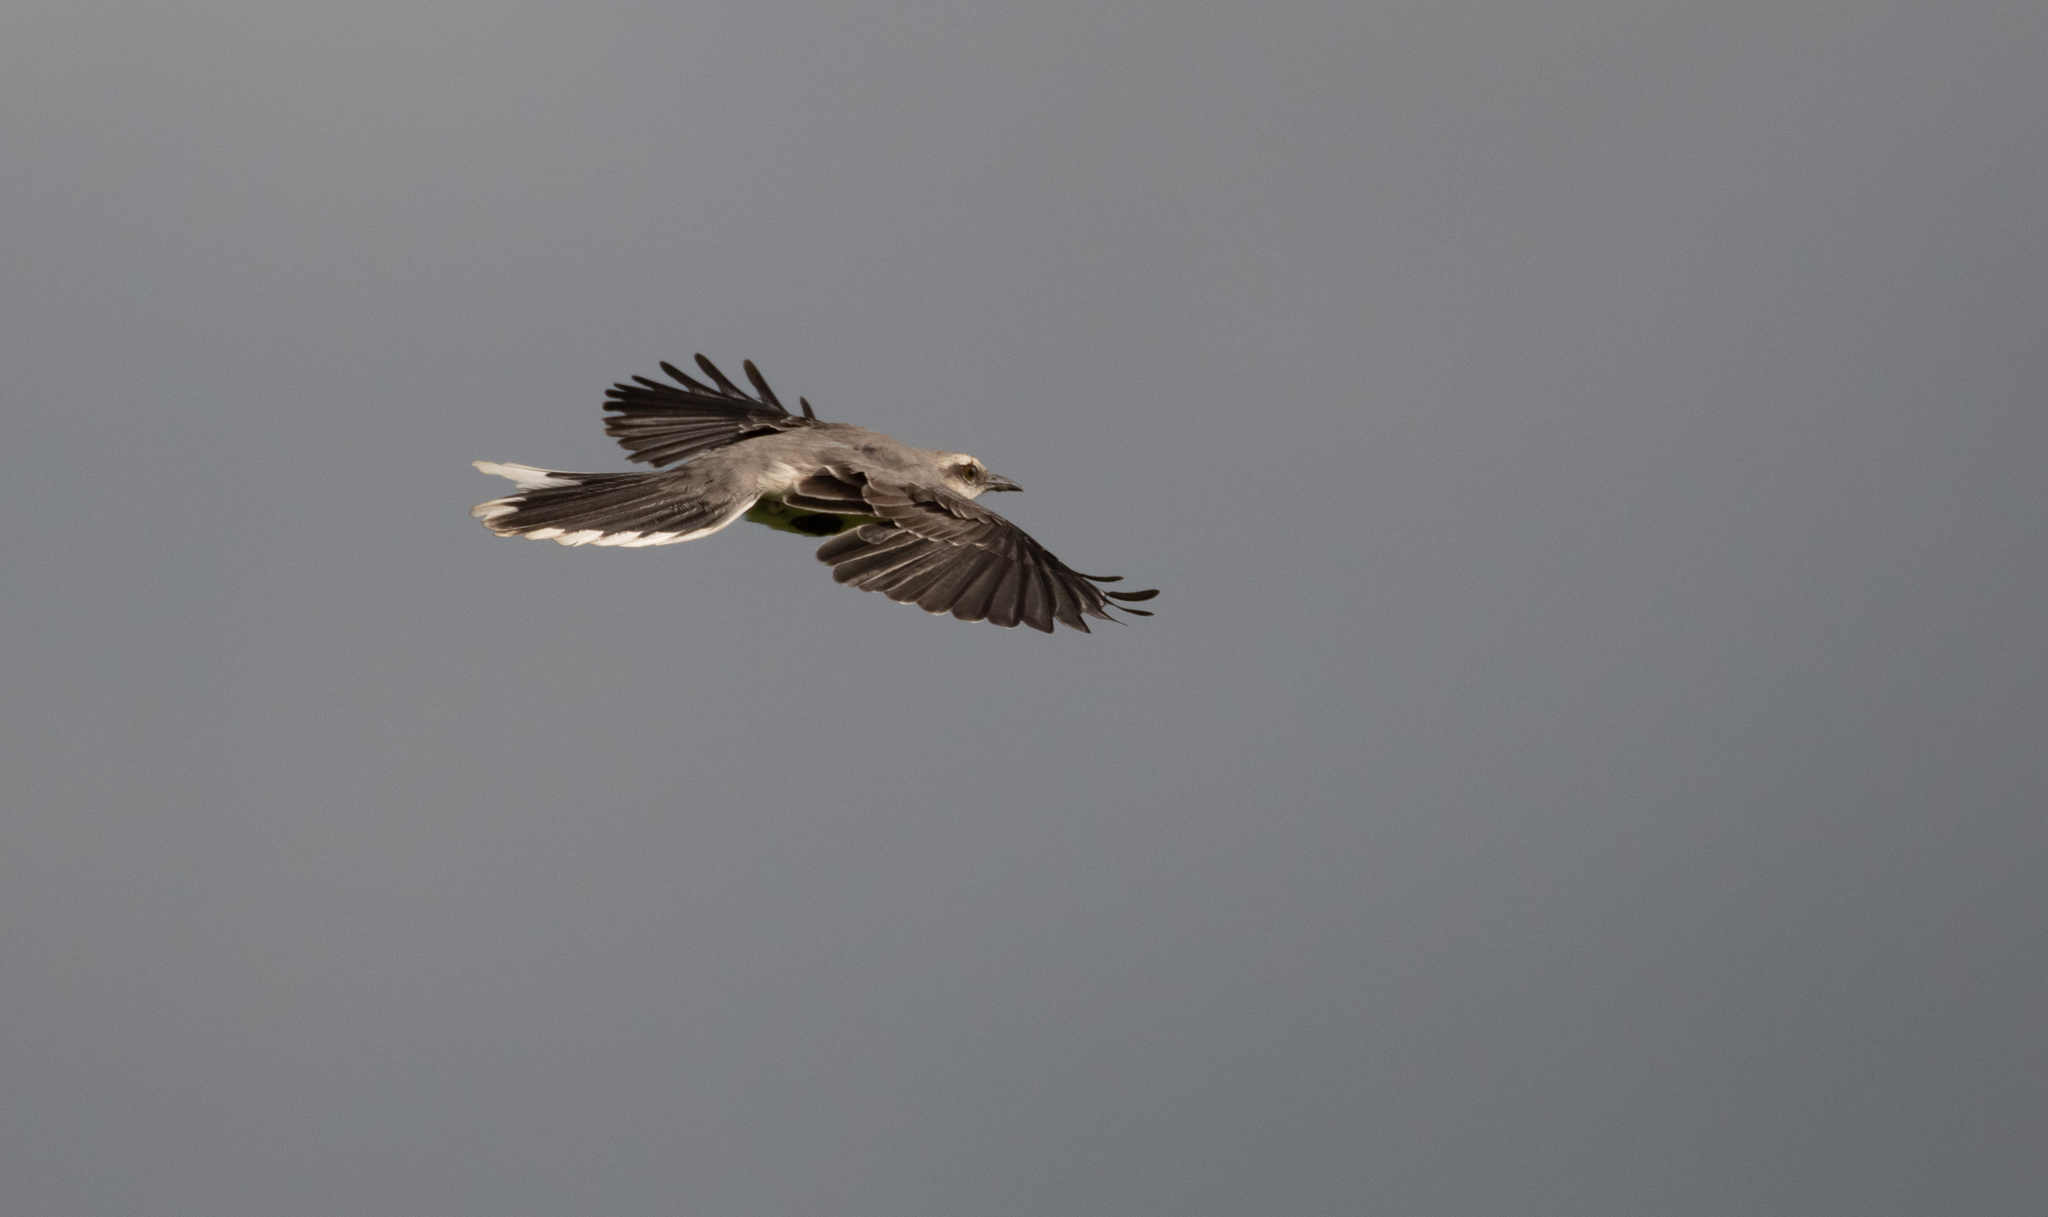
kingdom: Animalia
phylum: Chordata
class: Aves
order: Passeriformes
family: Mimidae
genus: Mimus
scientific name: Mimus gilvus
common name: Tropical mockingbird
